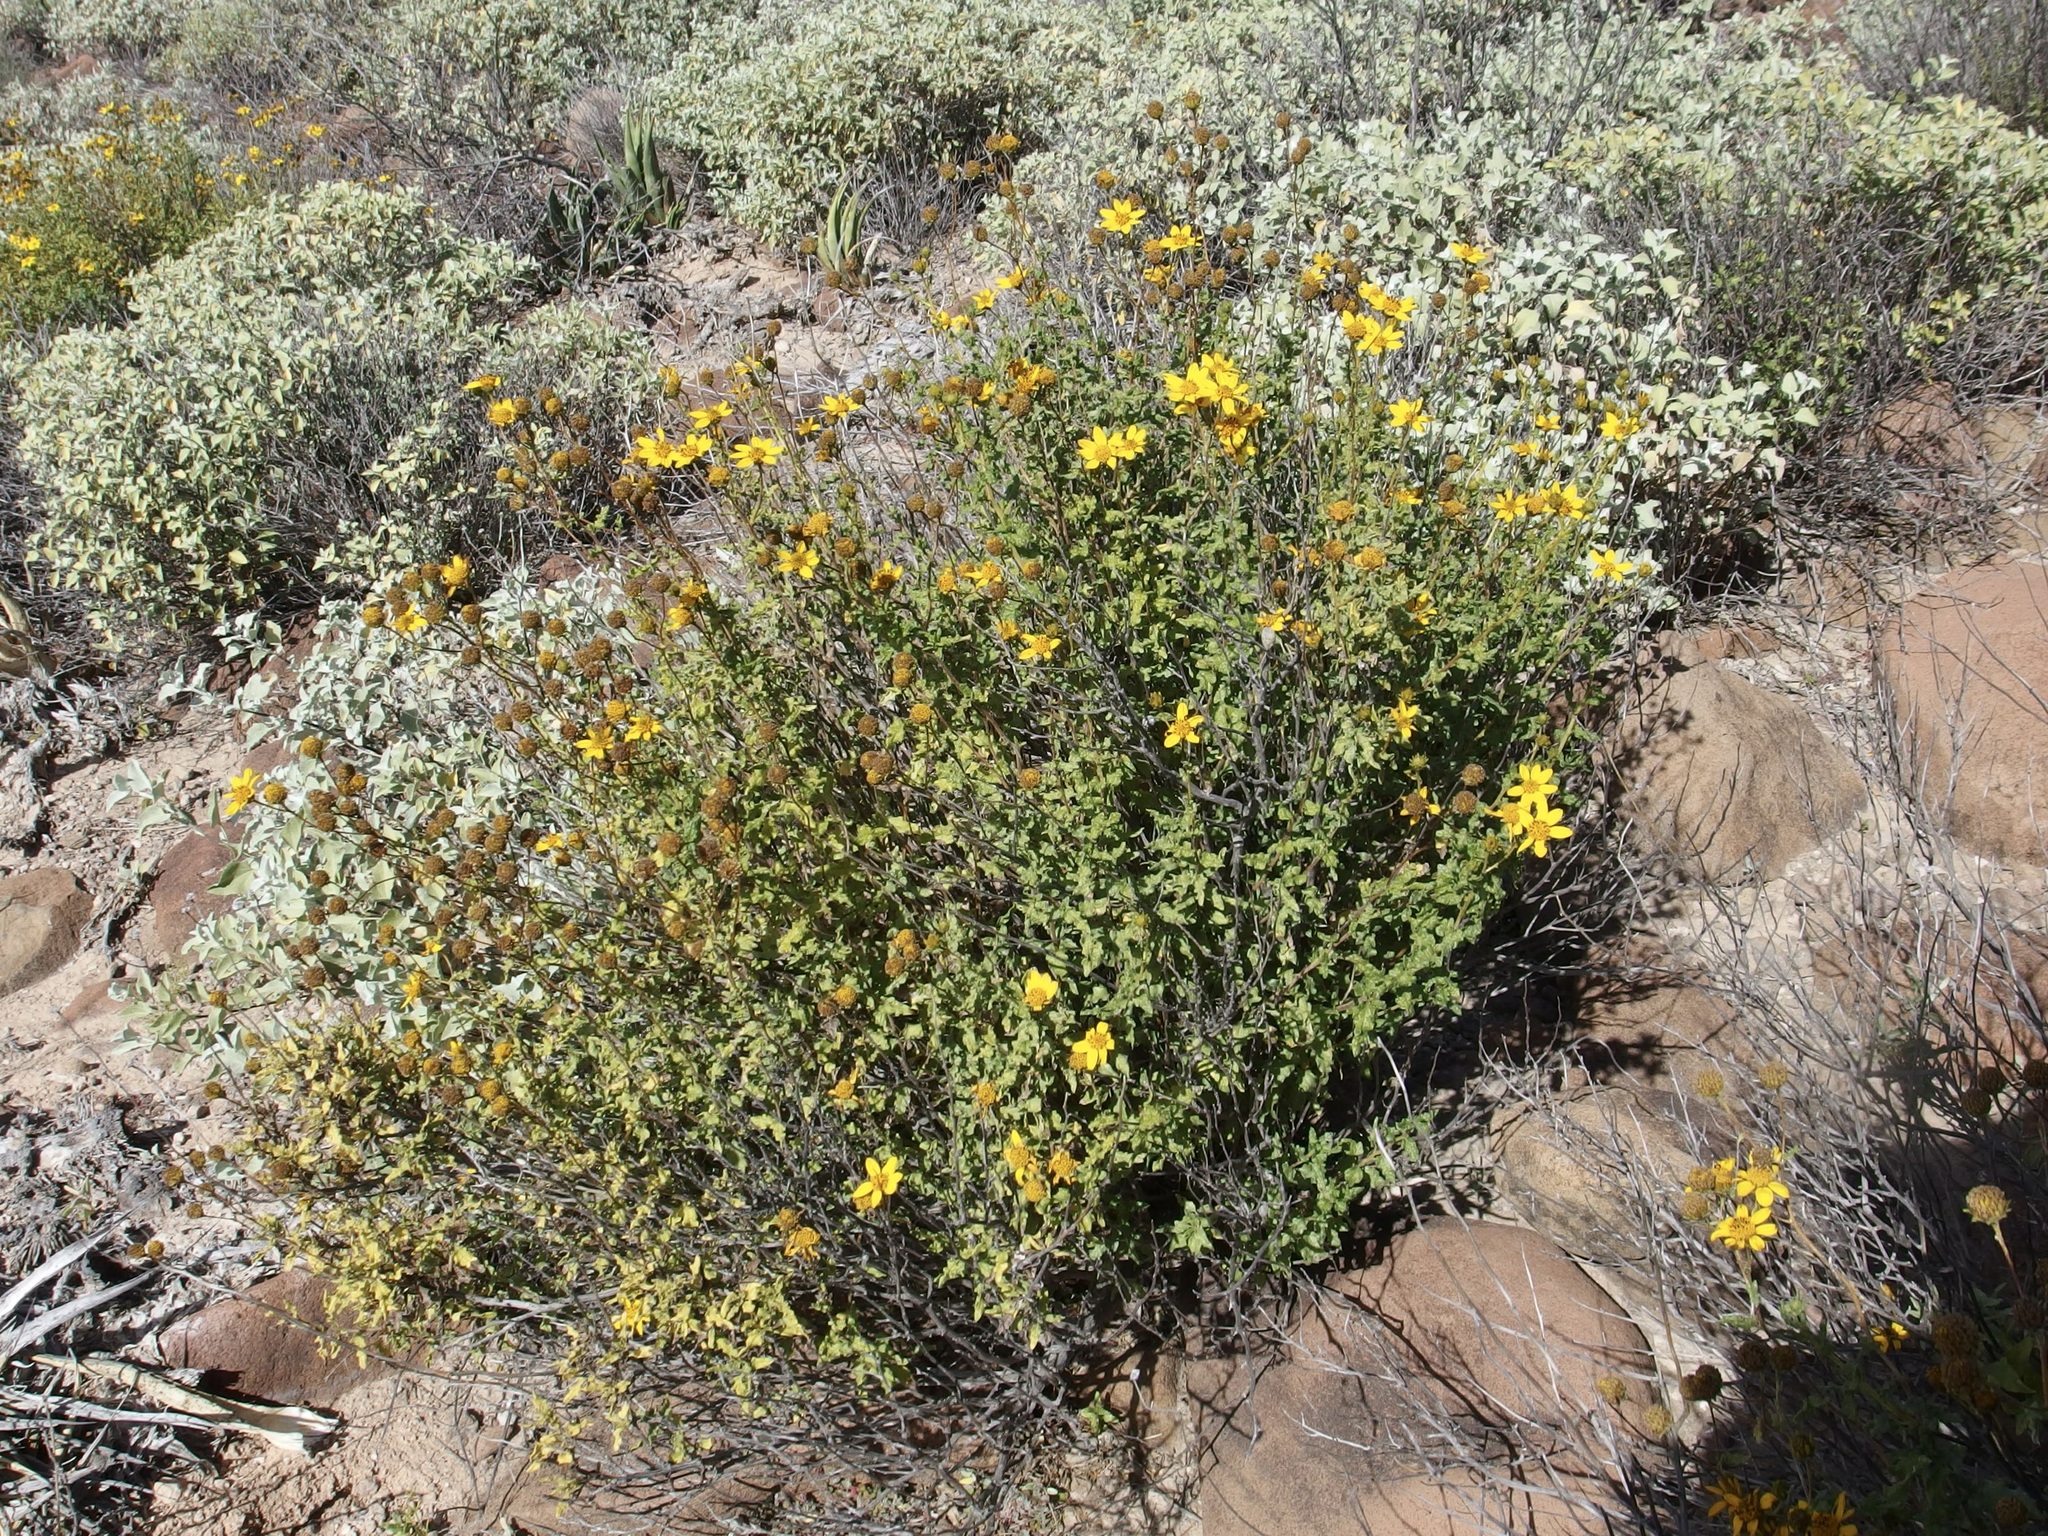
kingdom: Plantae
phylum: Tracheophyta
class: Magnoliopsida
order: Asterales
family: Asteraceae
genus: Bahiopsis
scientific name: Bahiopsis laciniata
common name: San diego county viguiera
